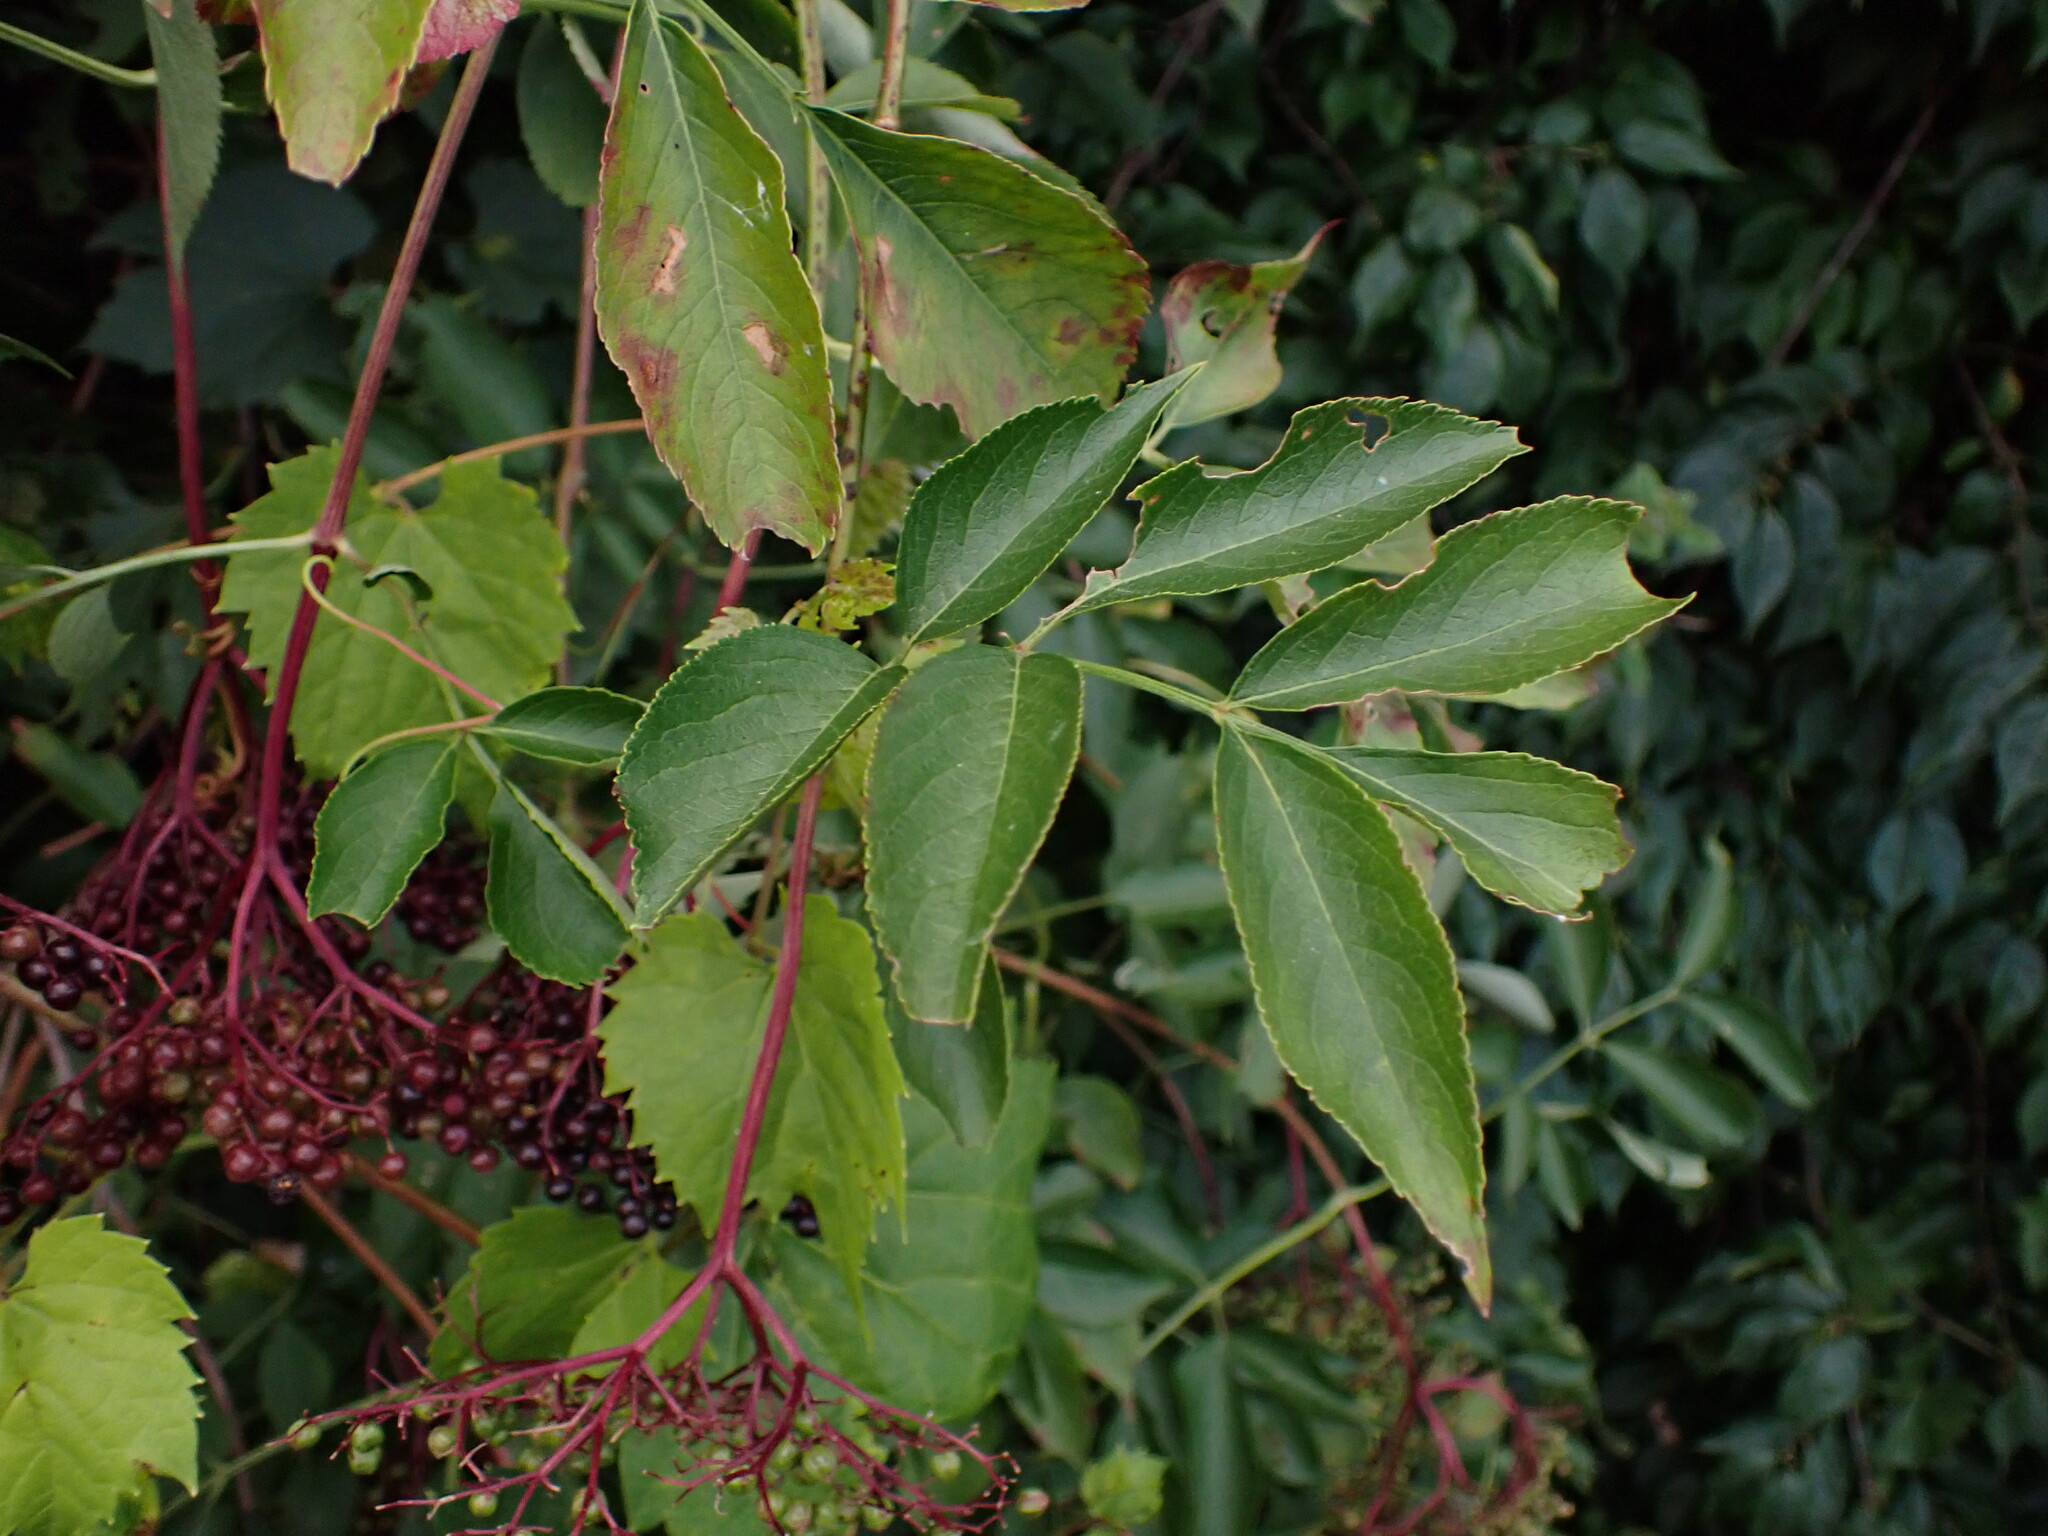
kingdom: Plantae
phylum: Tracheophyta
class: Magnoliopsida
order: Dipsacales
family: Viburnaceae
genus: Sambucus
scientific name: Sambucus canadensis
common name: American elder
